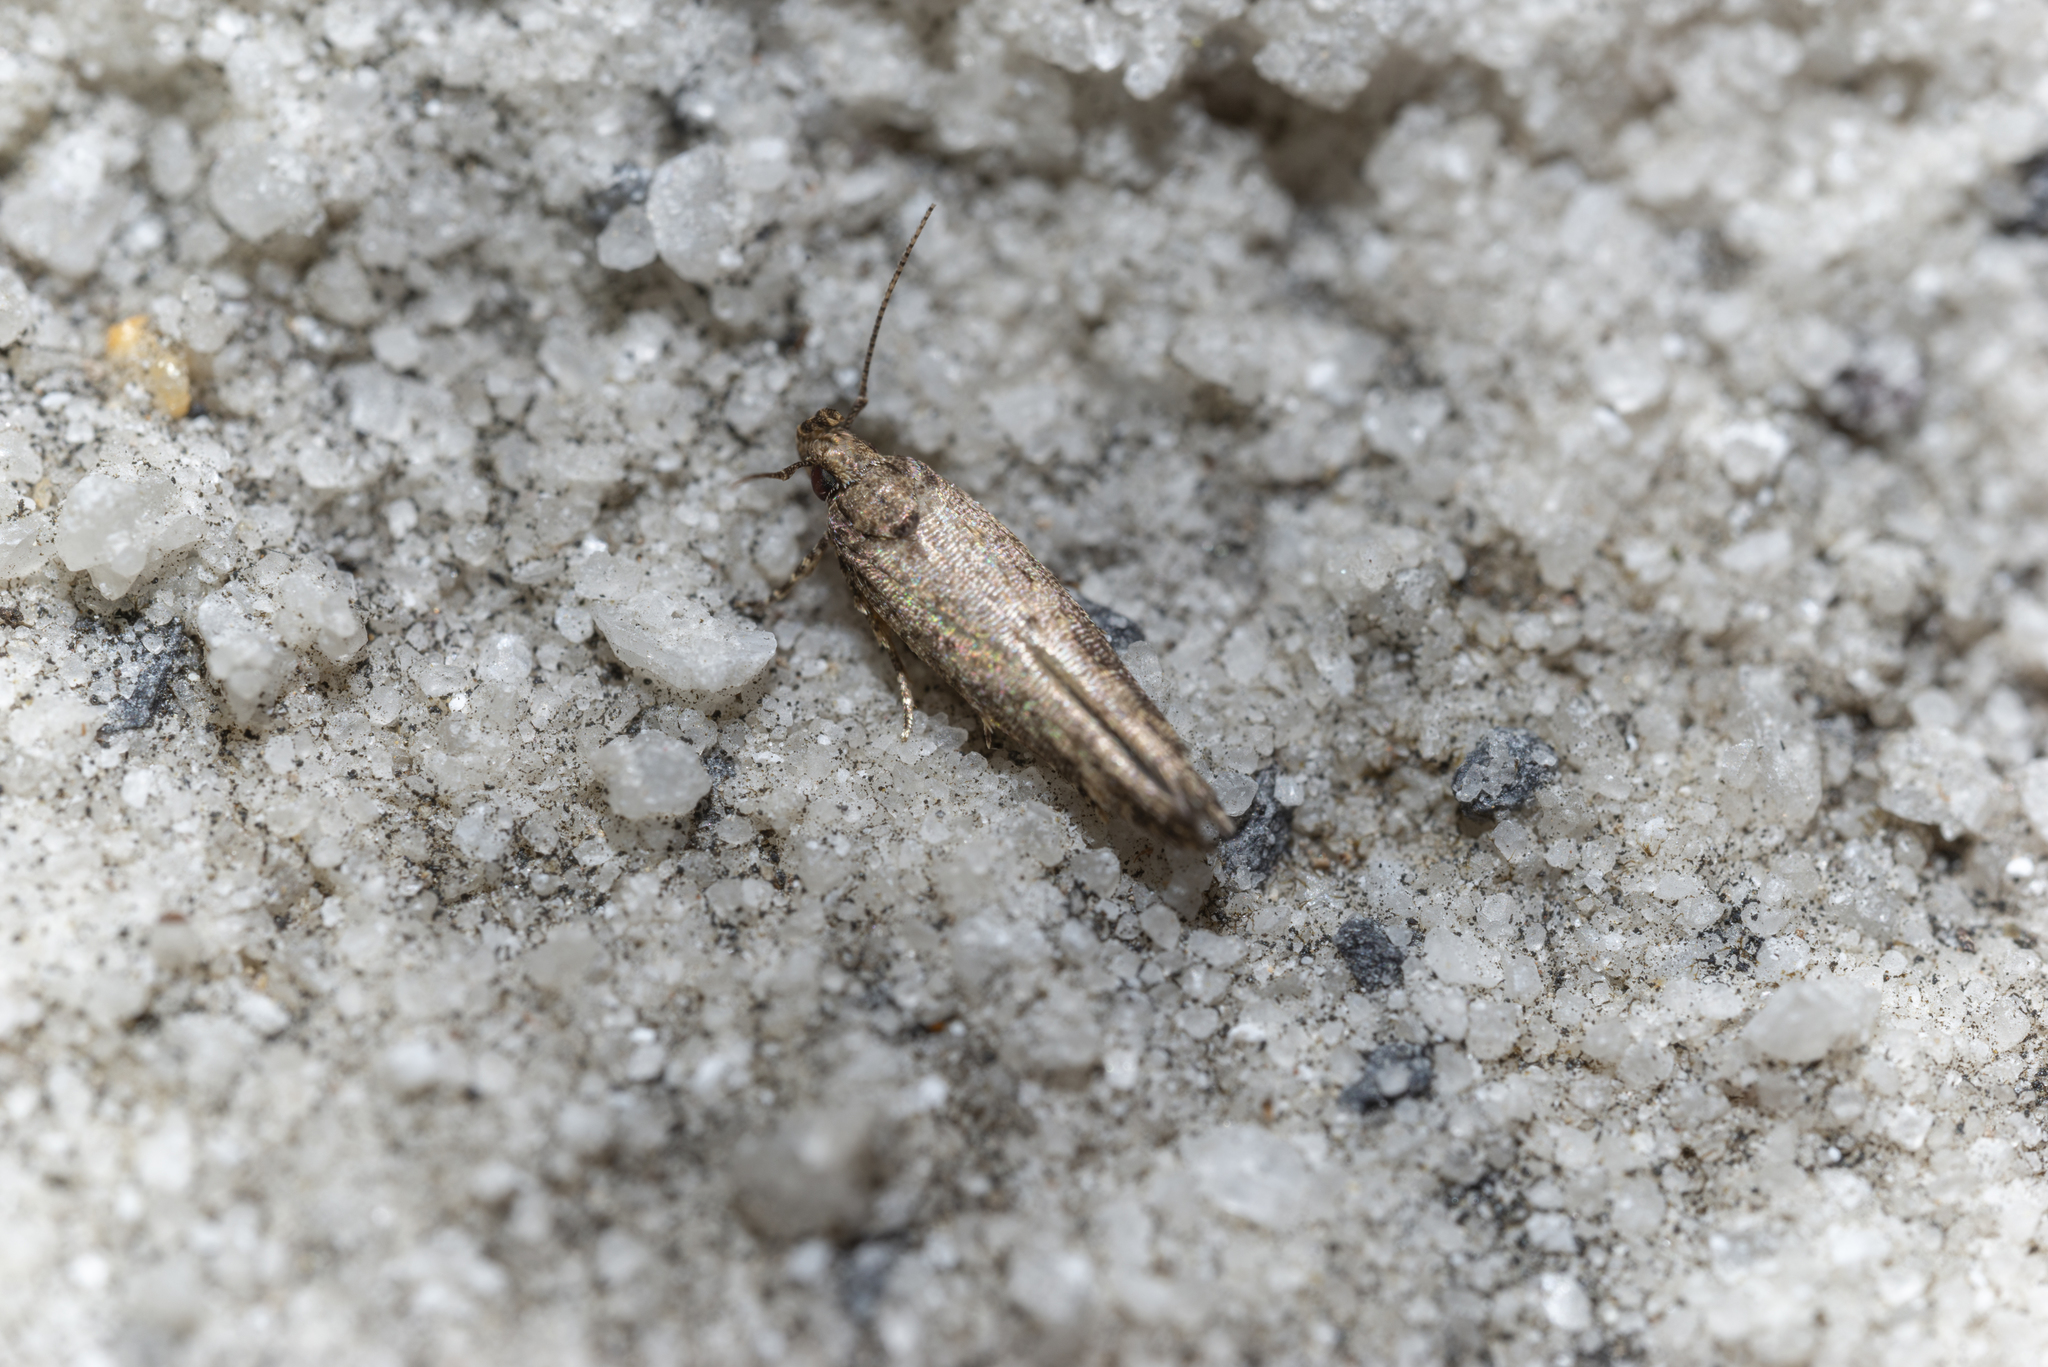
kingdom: Animalia
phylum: Arthropoda
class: Insecta
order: Lepidoptera
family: Gelechiidae
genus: Empedaula
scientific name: Empedaula insipiens
